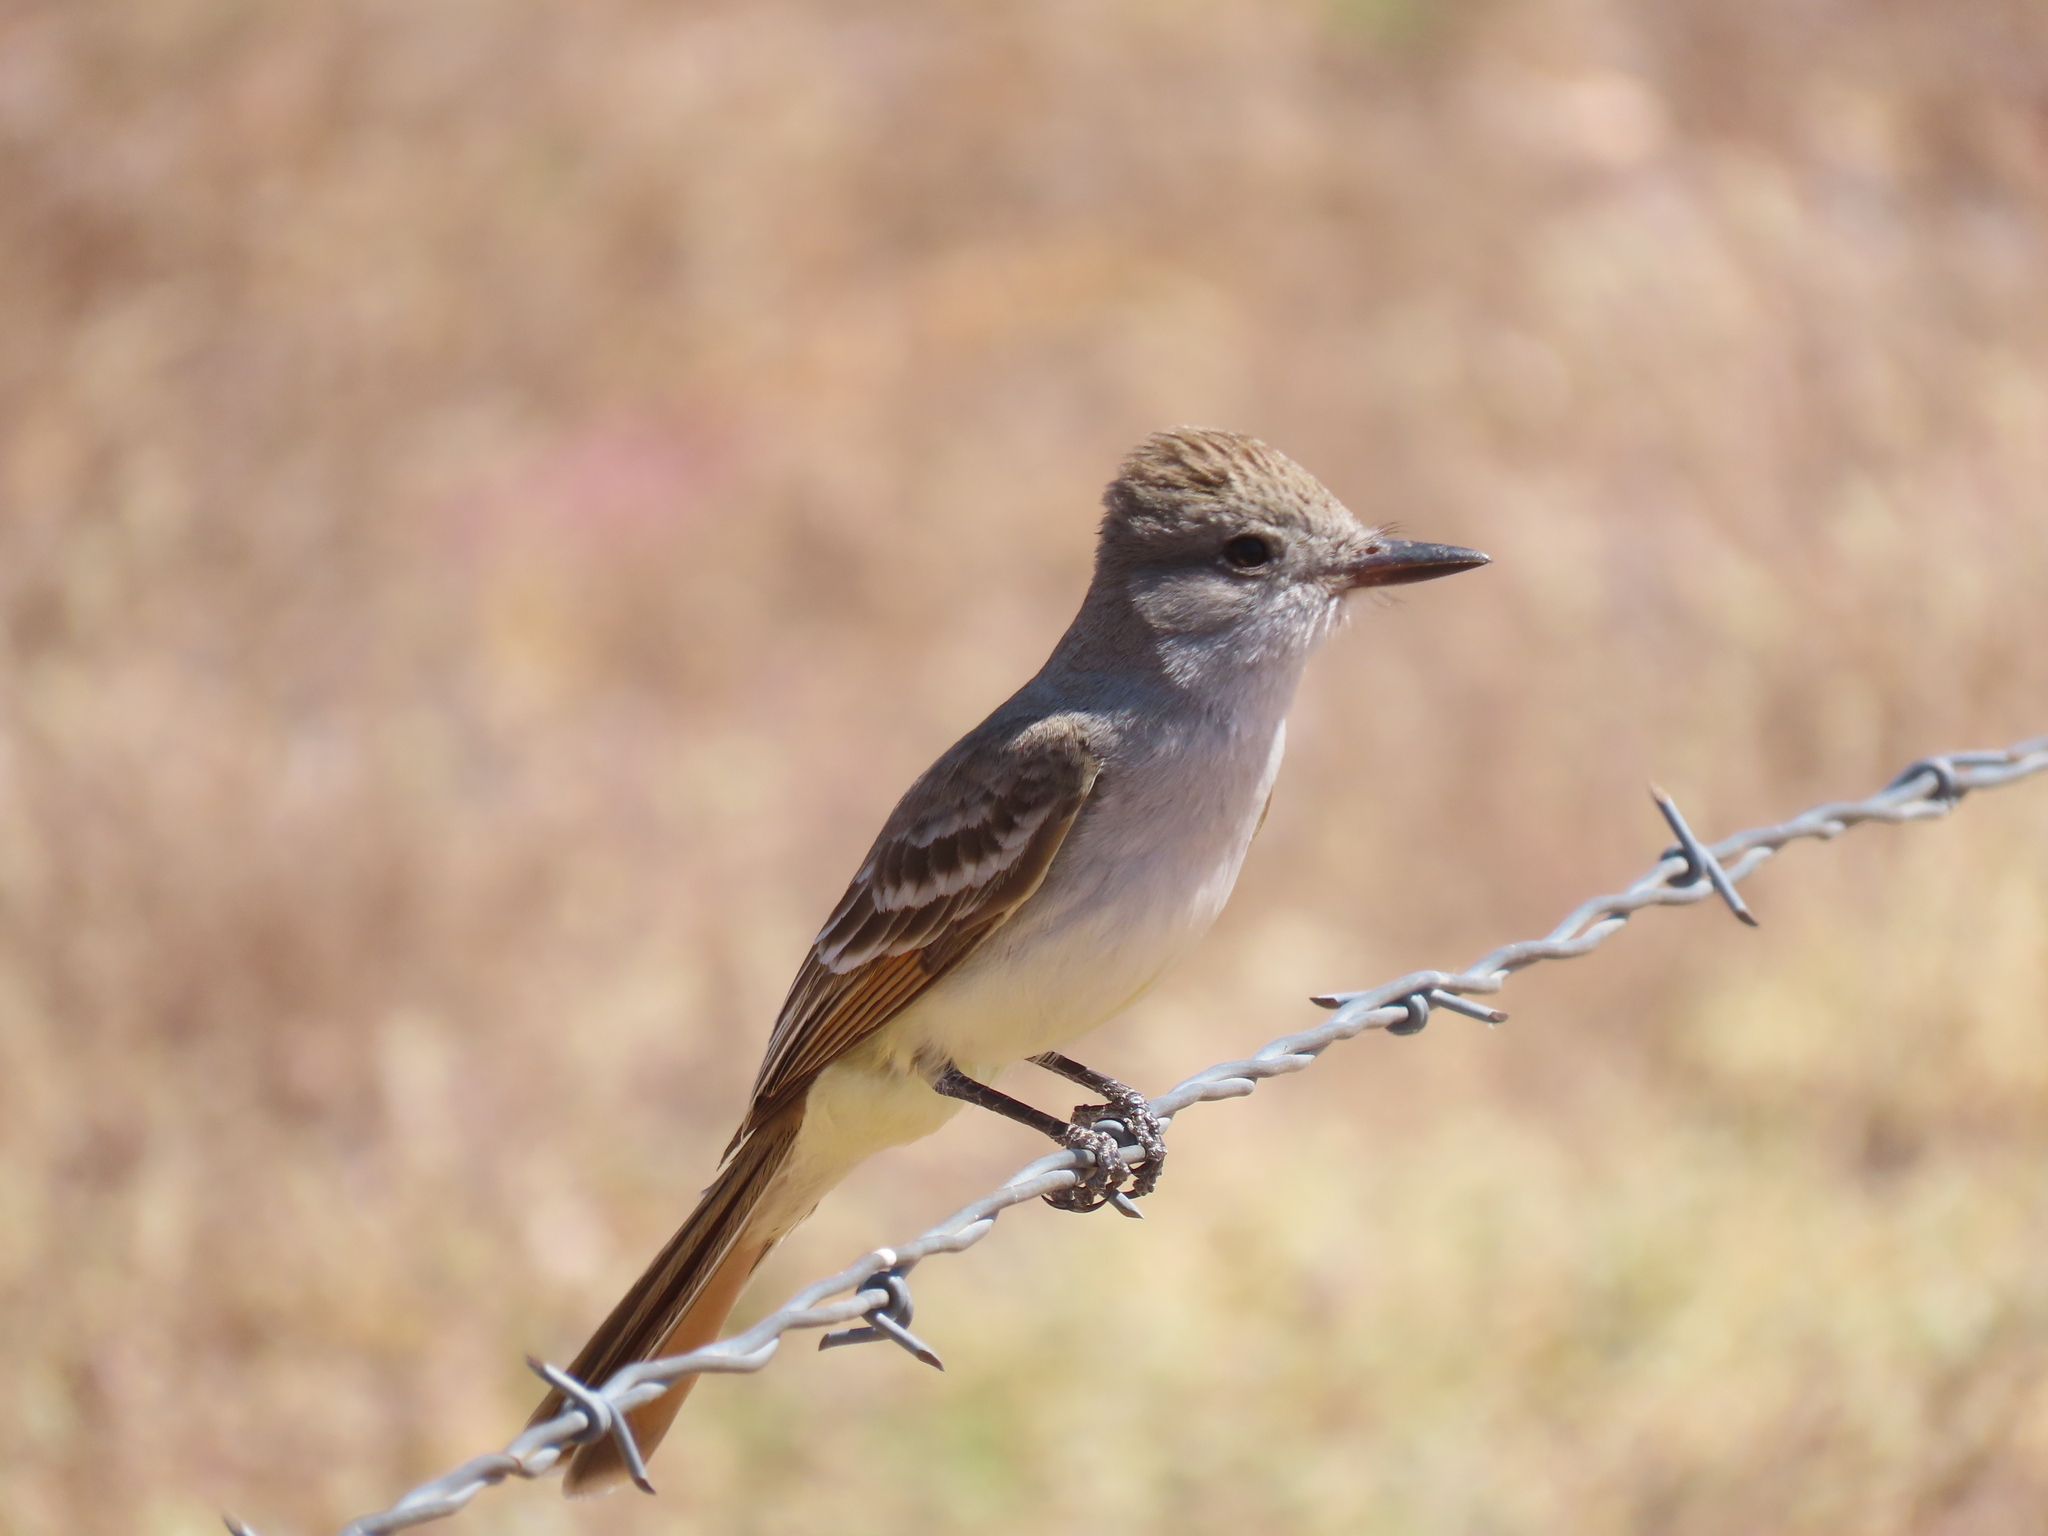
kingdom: Animalia
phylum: Chordata
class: Aves
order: Passeriformes
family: Tyrannidae
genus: Myiarchus
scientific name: Myiarchus cinerascens
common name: Ash-throated flycatcher
